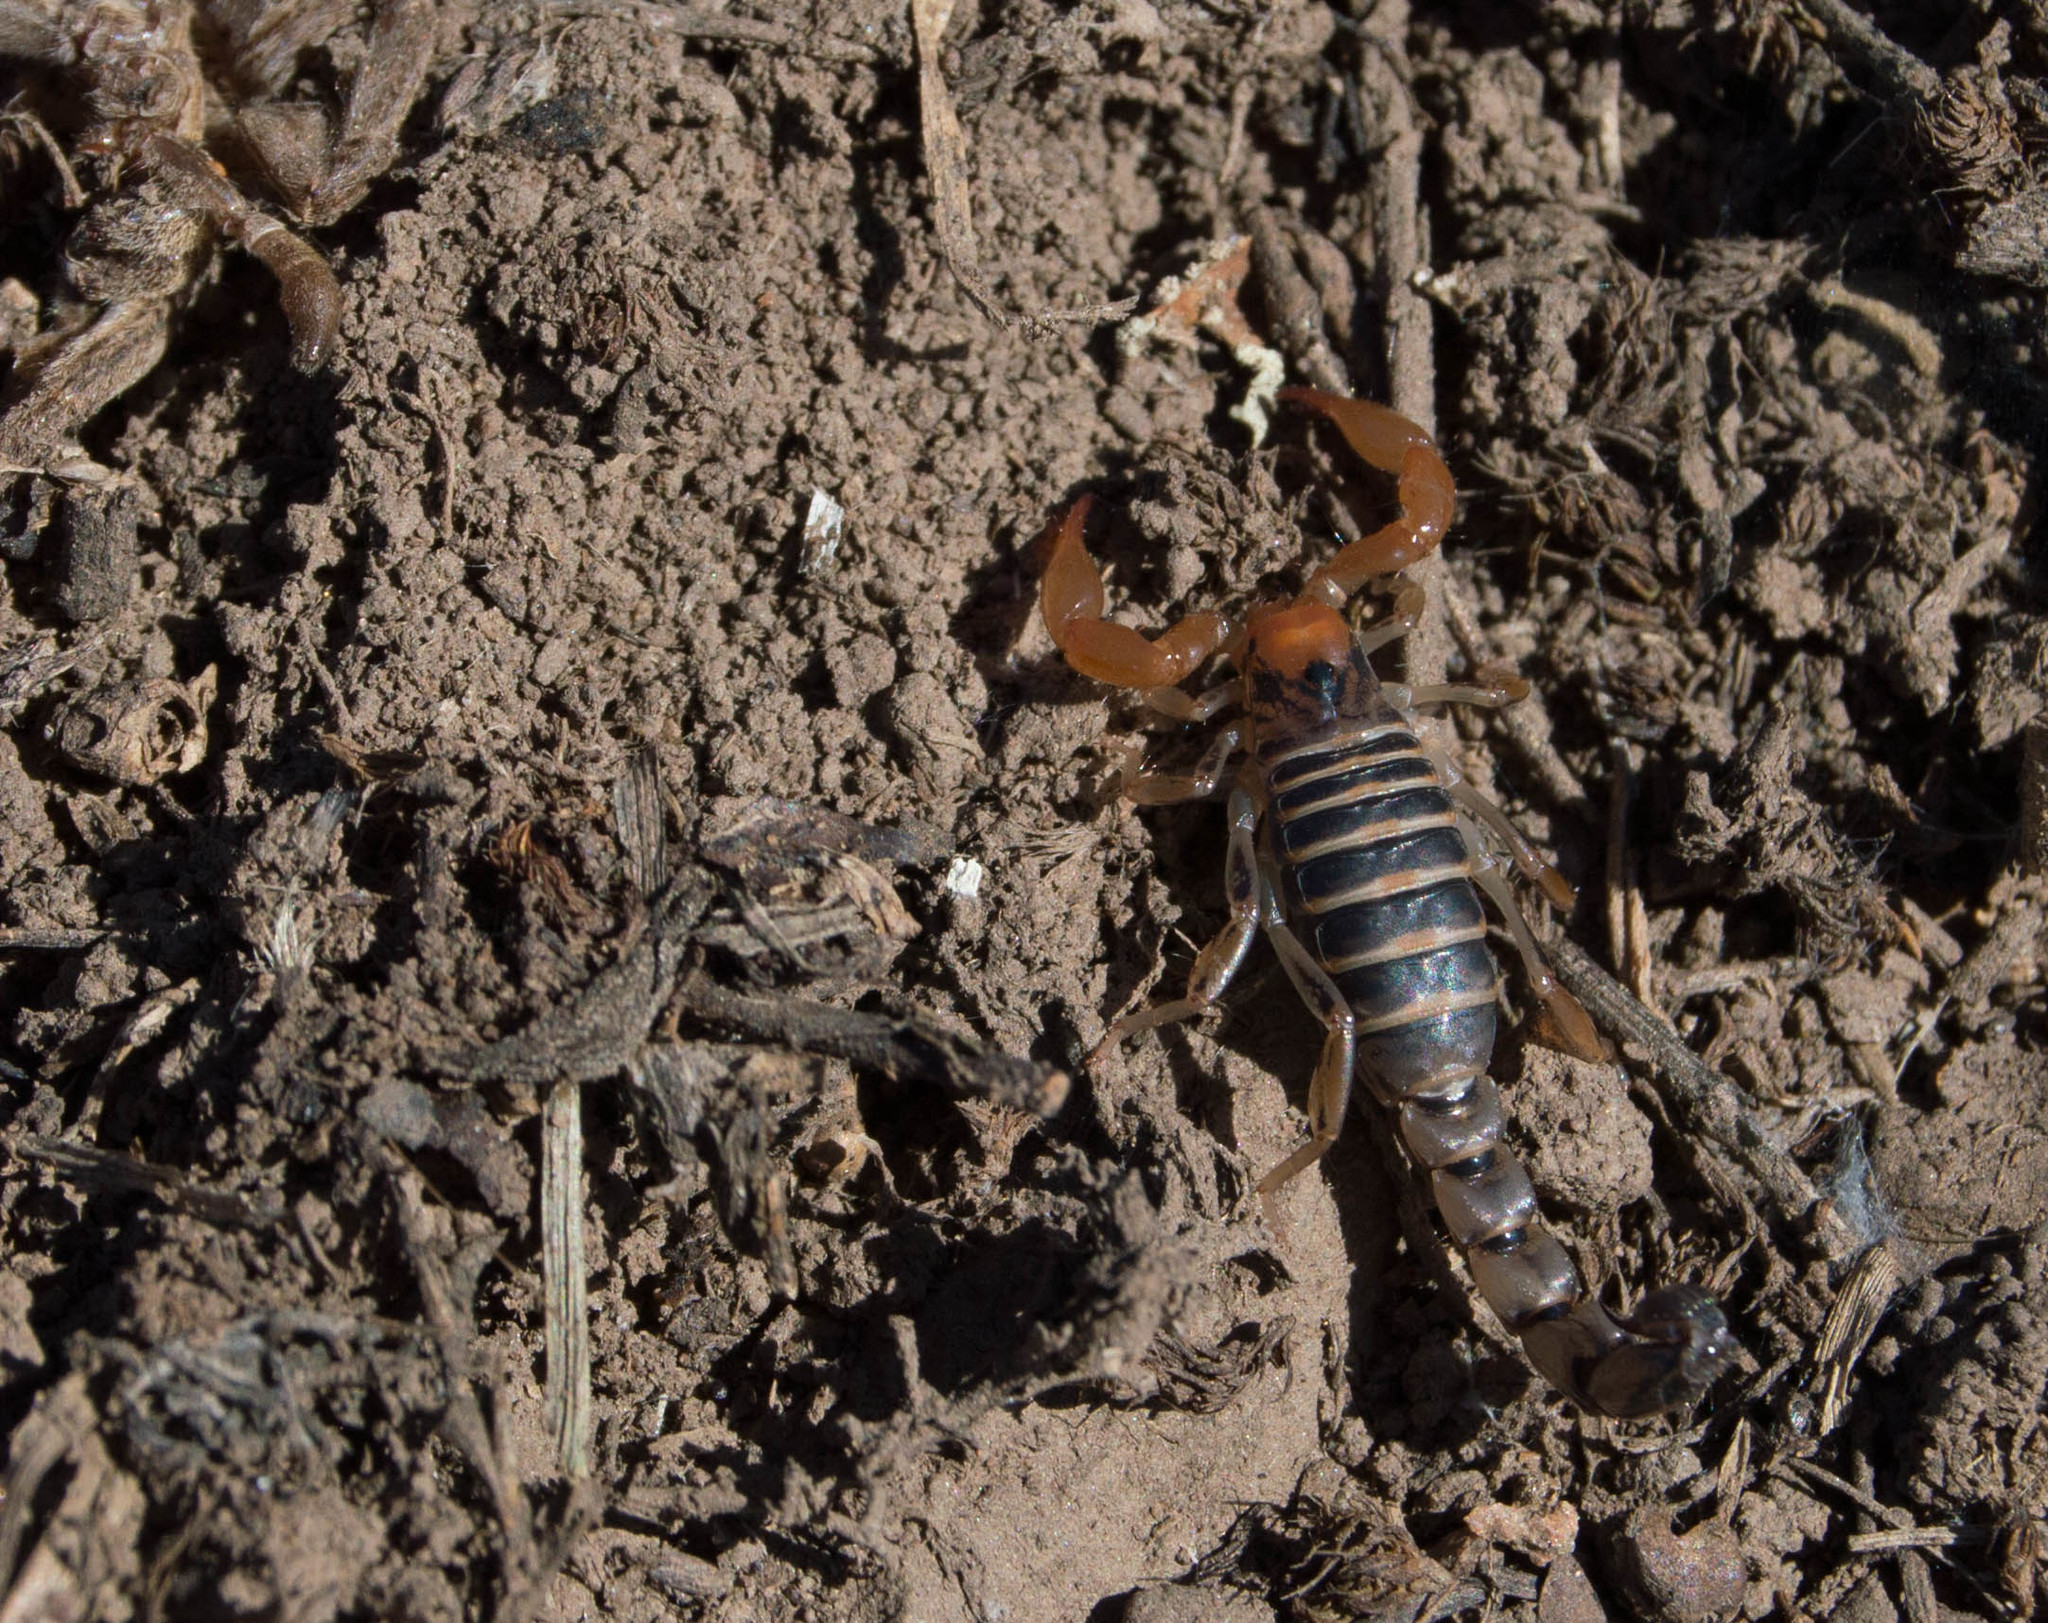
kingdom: Animalia
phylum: Arthropoda
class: Arachnida
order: Scorpiones
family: Bothriuridae
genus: Bothriurus
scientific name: Bothriurus prospicuus
